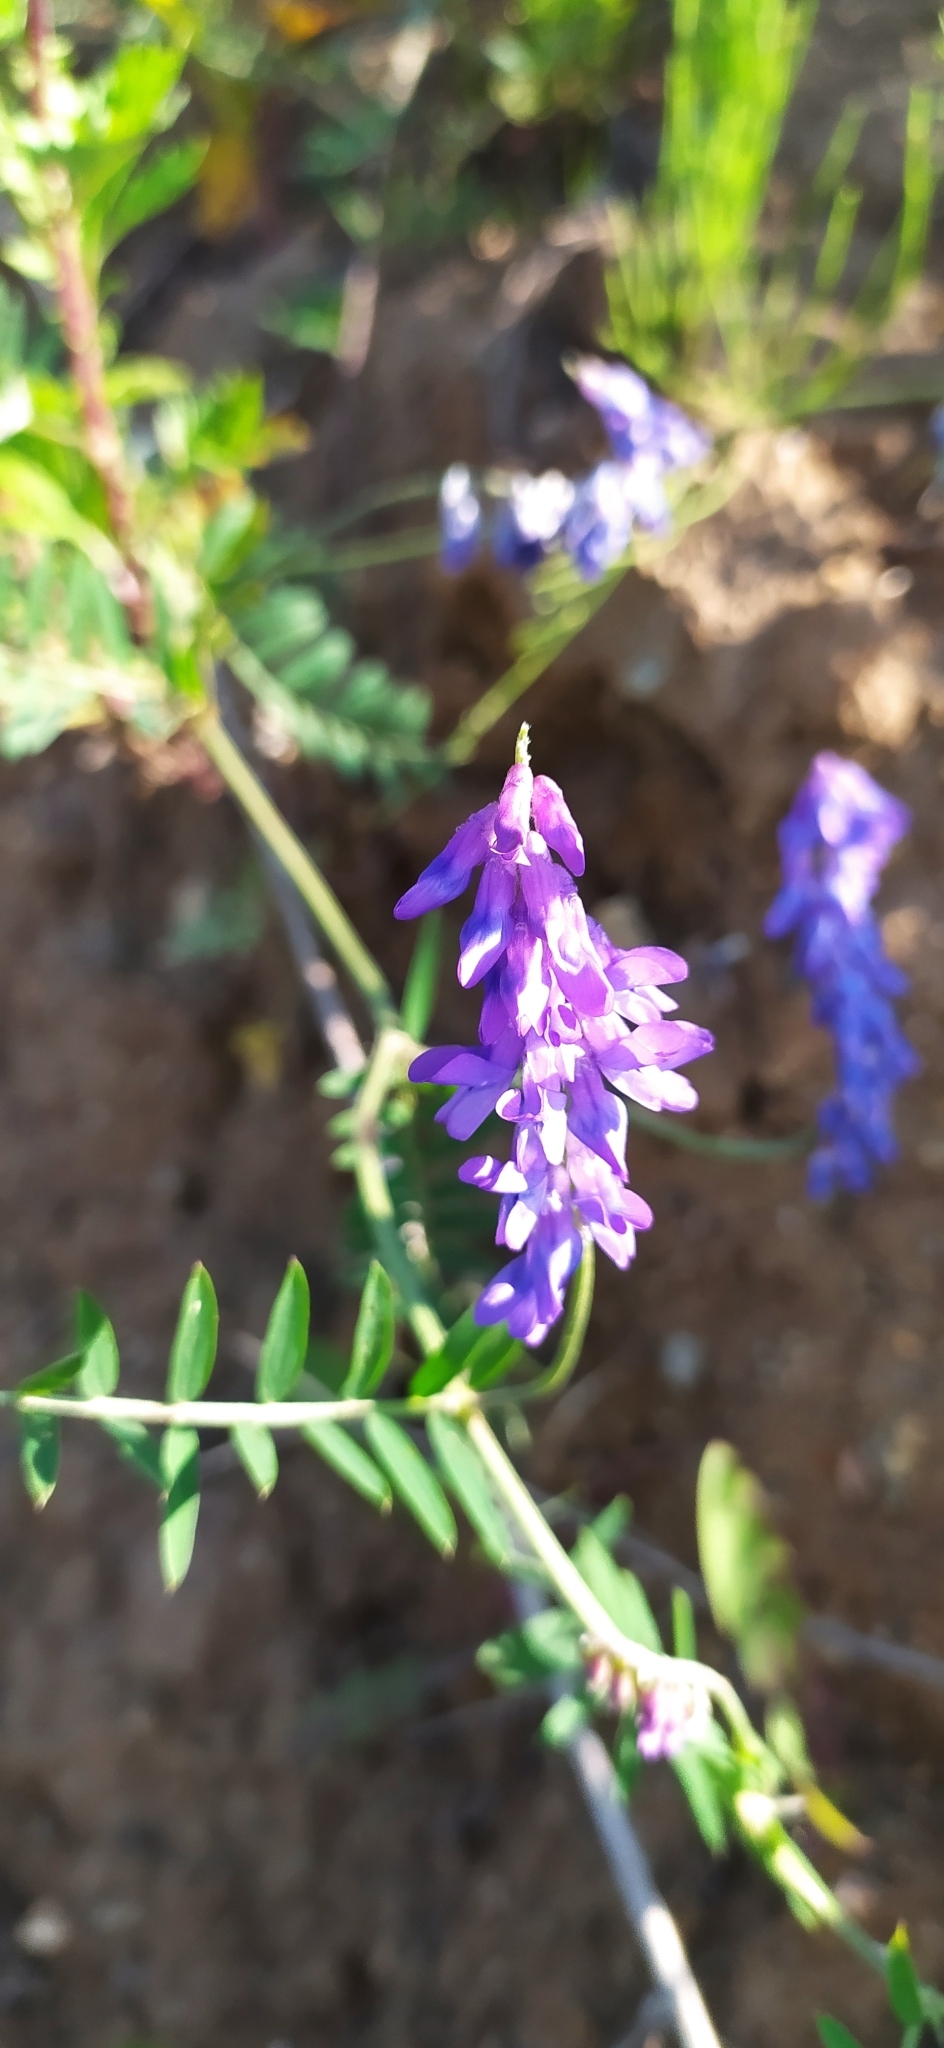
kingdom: Plantae
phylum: Tracheophyta
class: Magnoliopsida
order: Fabales
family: Fabaceae
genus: Vicia
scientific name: Vicia cracca
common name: Bird vetch
